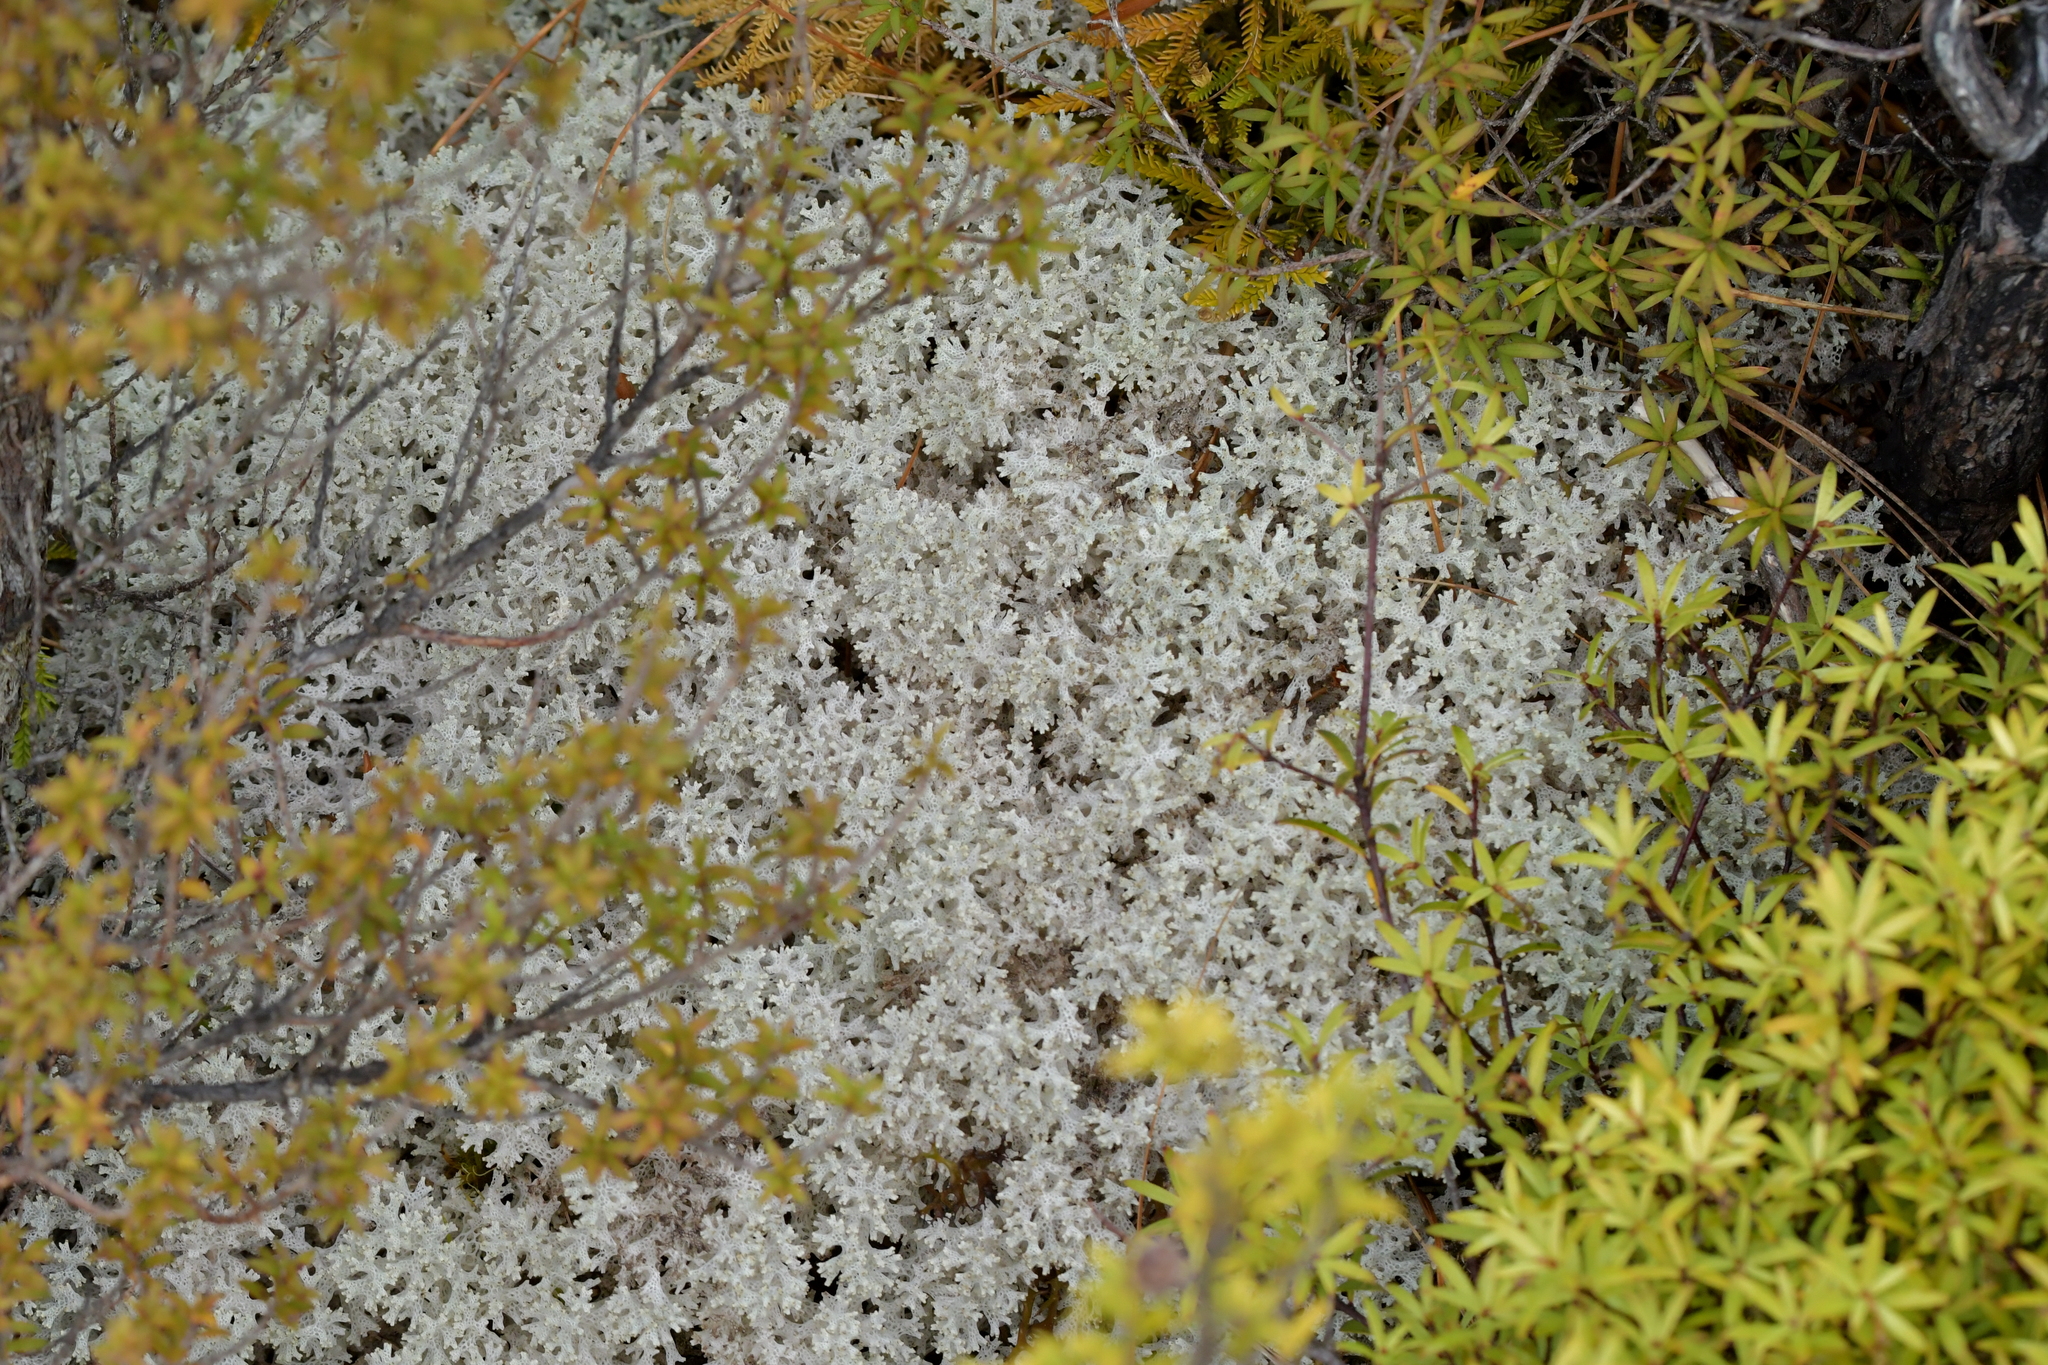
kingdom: Fungi
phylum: Ascomycota
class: Lecanoromycetes
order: Lecanorales
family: Cladoniaceae
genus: Pulchrocladia
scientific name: Pulchrocladia retipora
